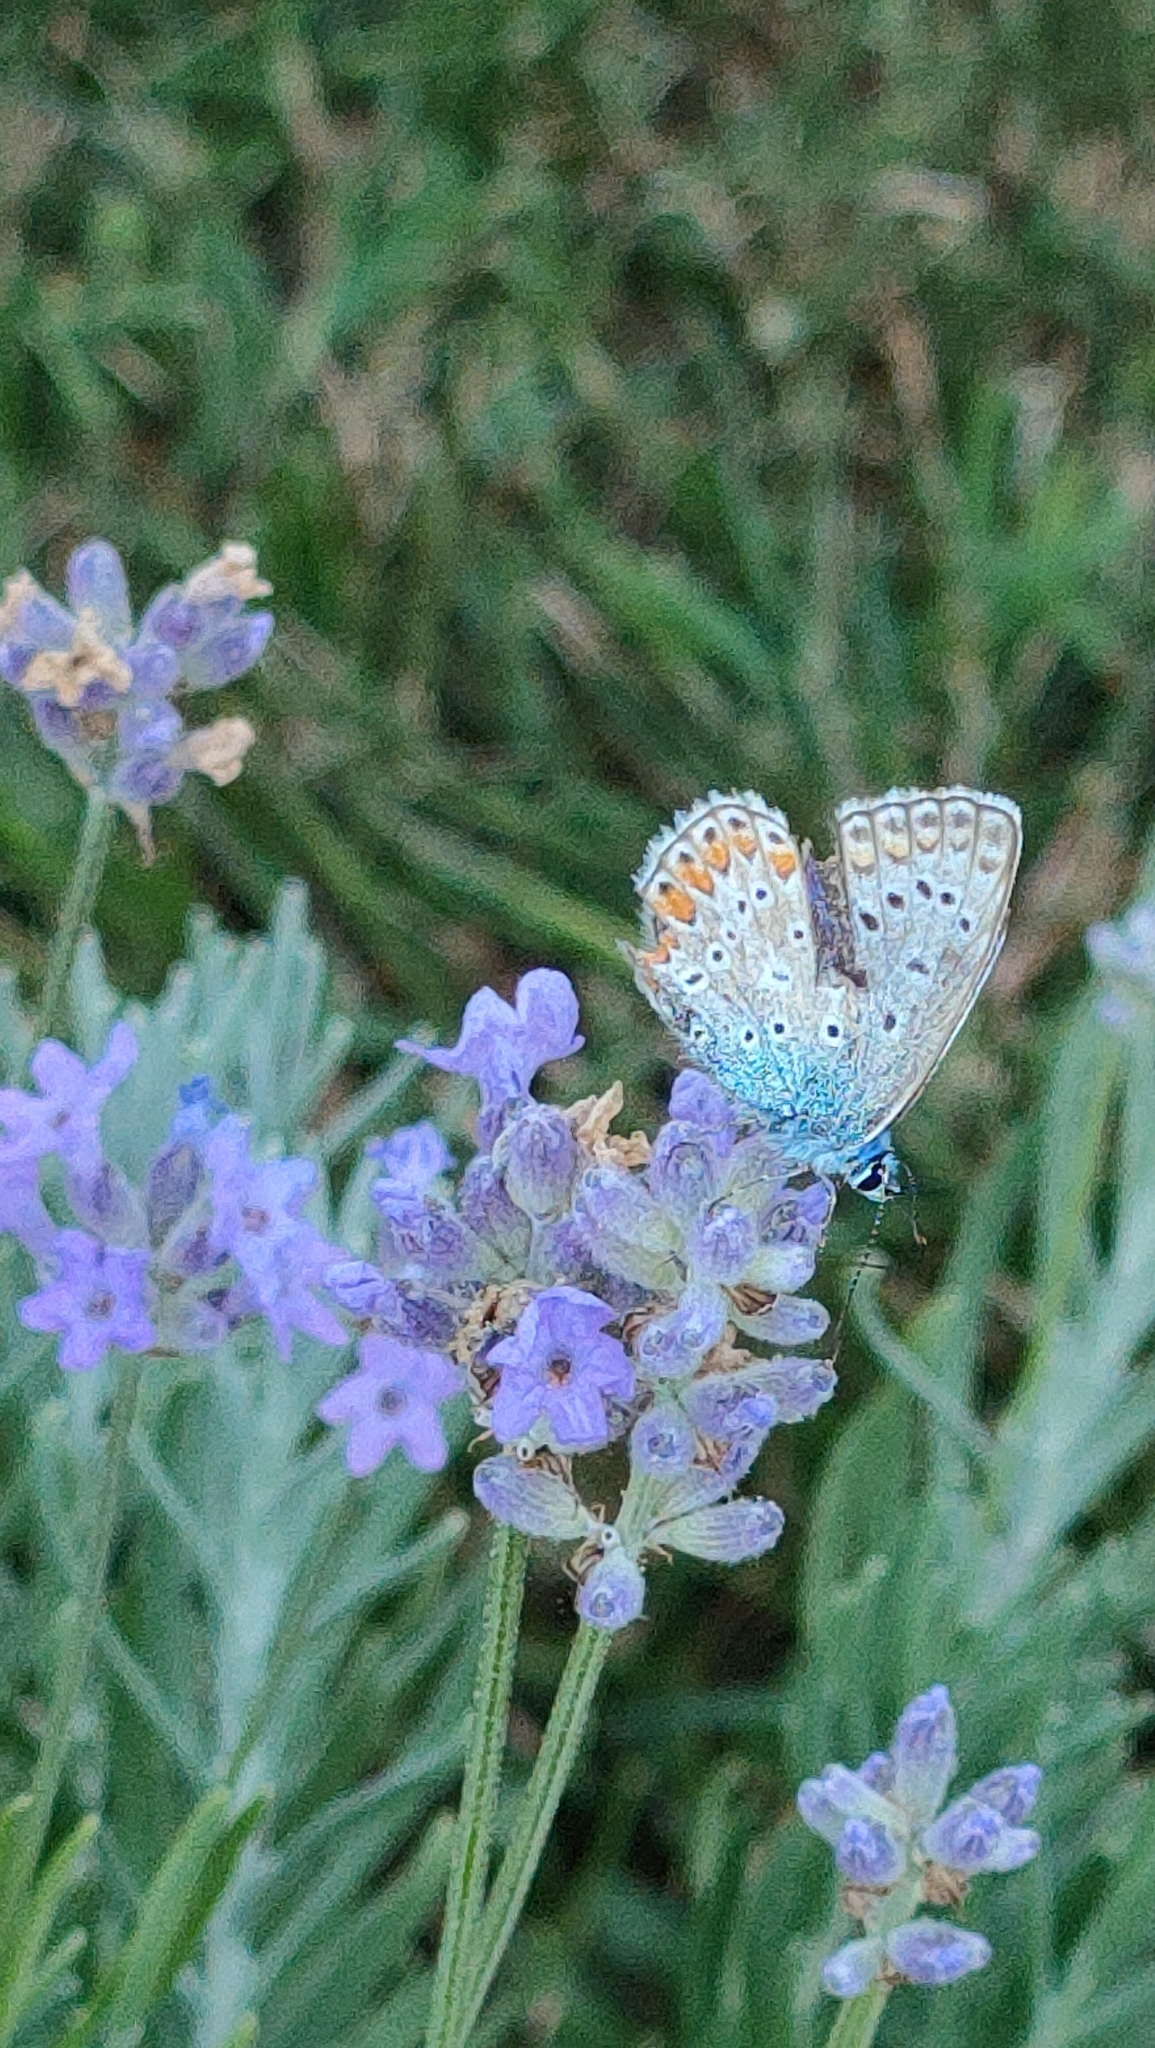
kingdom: Animalia
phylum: Arthropoda
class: Insecta
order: Lepidoptera
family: Lycaenidae
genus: Polyommatus
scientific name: Polyommatus icarus
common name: Common blue
